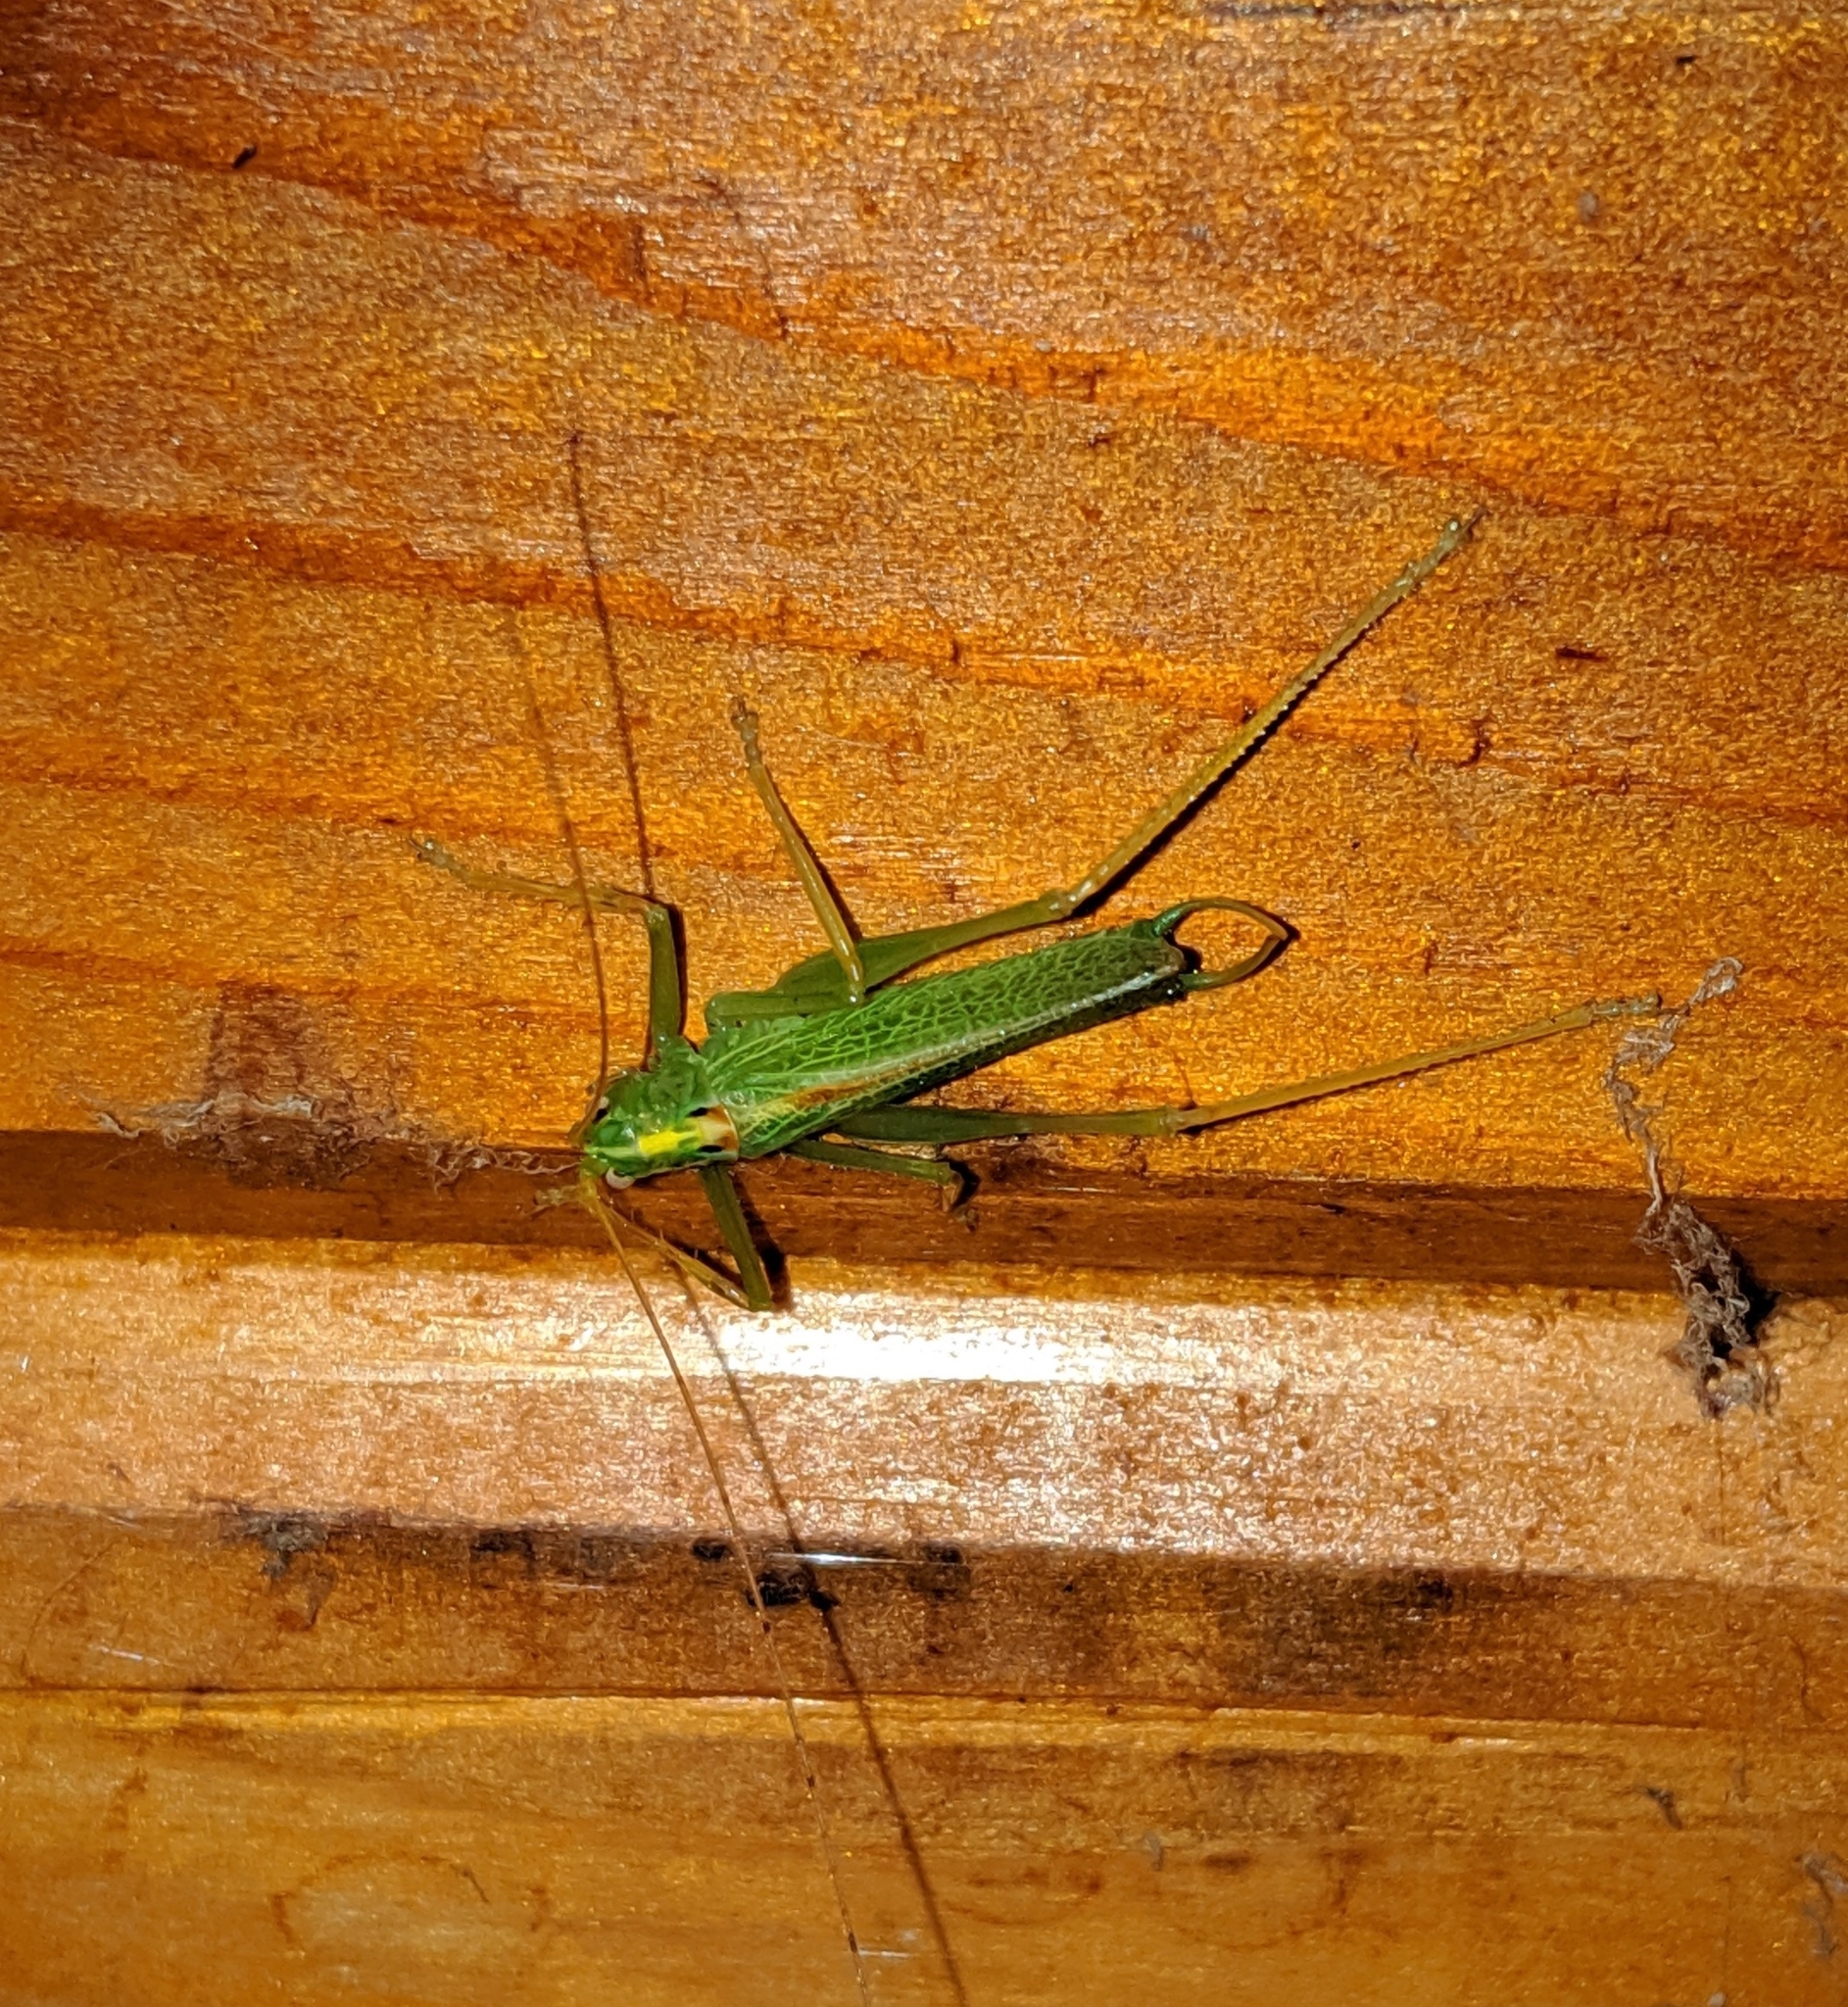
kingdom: Animalia
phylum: Arthropoda
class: Insecta
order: Orthoptera
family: Tettigoniidae
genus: Meconema
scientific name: Meconema thalassinum
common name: Oak bush-cricket
